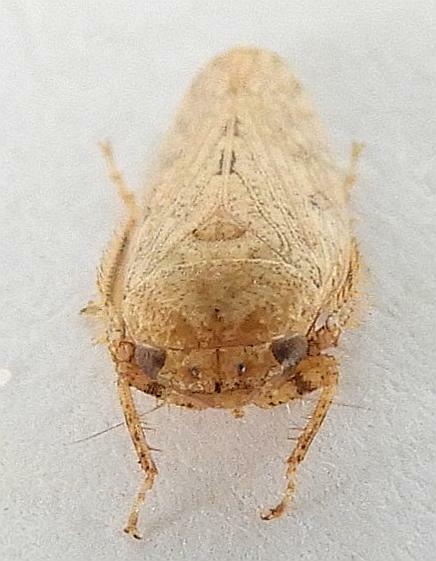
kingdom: Animalia
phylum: Arthropoda
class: Insecta
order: Hemiptera
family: Cicadellidae
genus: Curtara
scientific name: Curtara insularis
